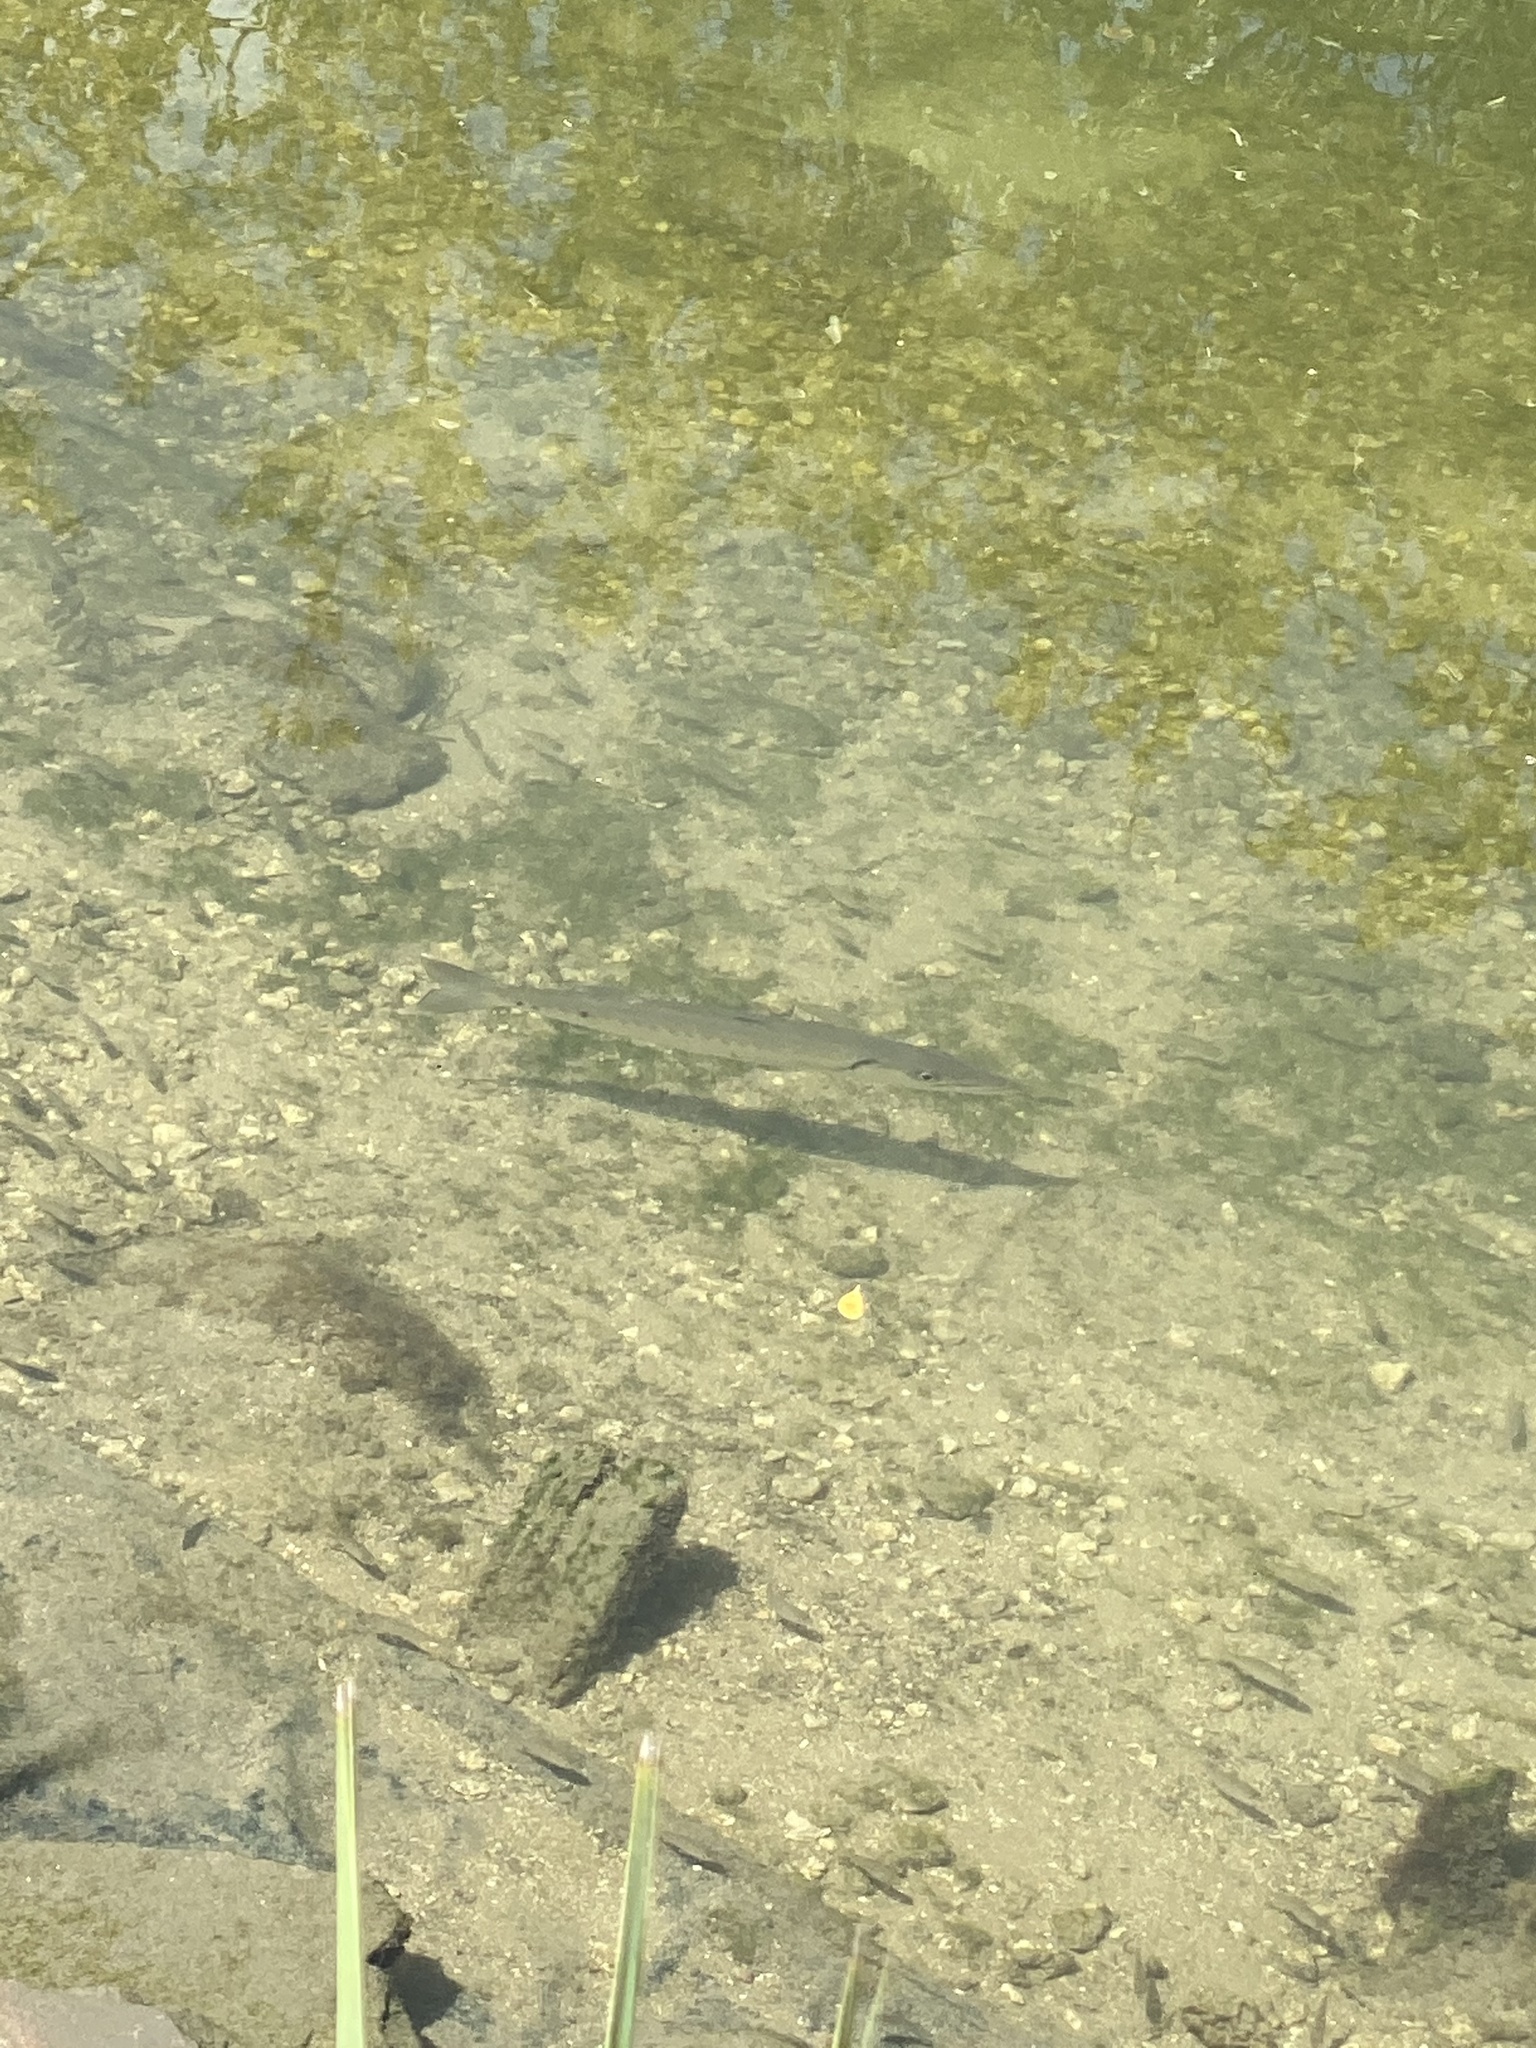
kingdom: Animalia
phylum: Chordata
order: Perciformes
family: Sphyraenidae
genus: Sphyraena
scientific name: Sphyraena barracuda
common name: Great barracuda
